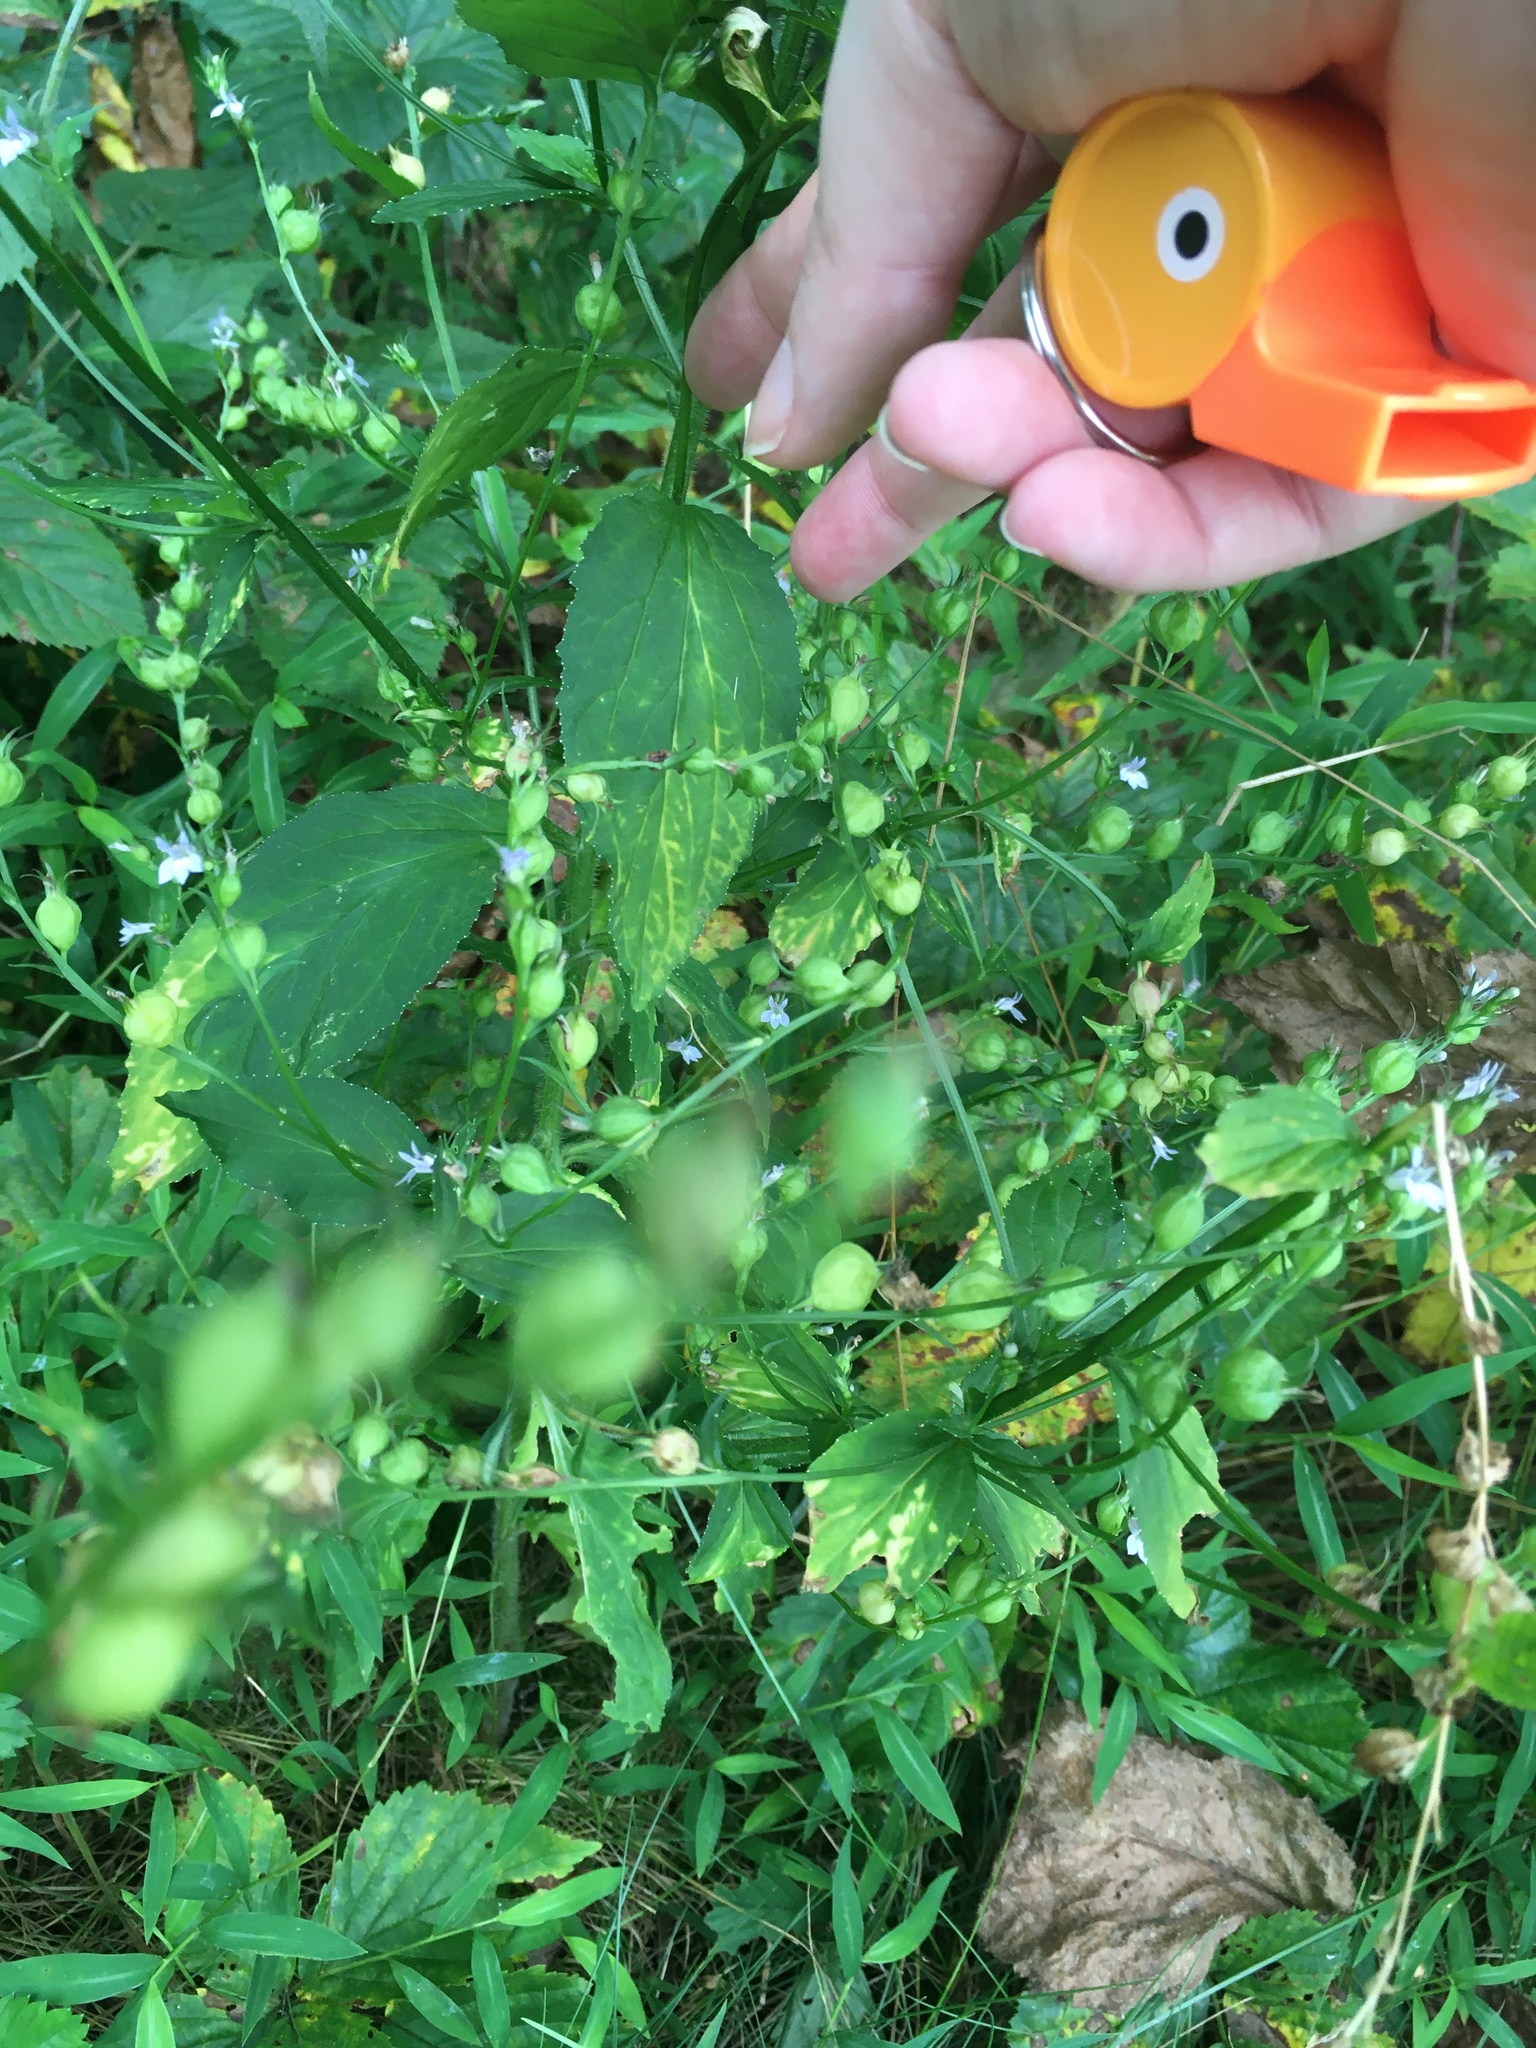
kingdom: Plantae
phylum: Tracheophyta
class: Magnoliopsida
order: Asterales
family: Campanulaceae
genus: Lobelia
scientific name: Lobelia inflata
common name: Indian tobacco
